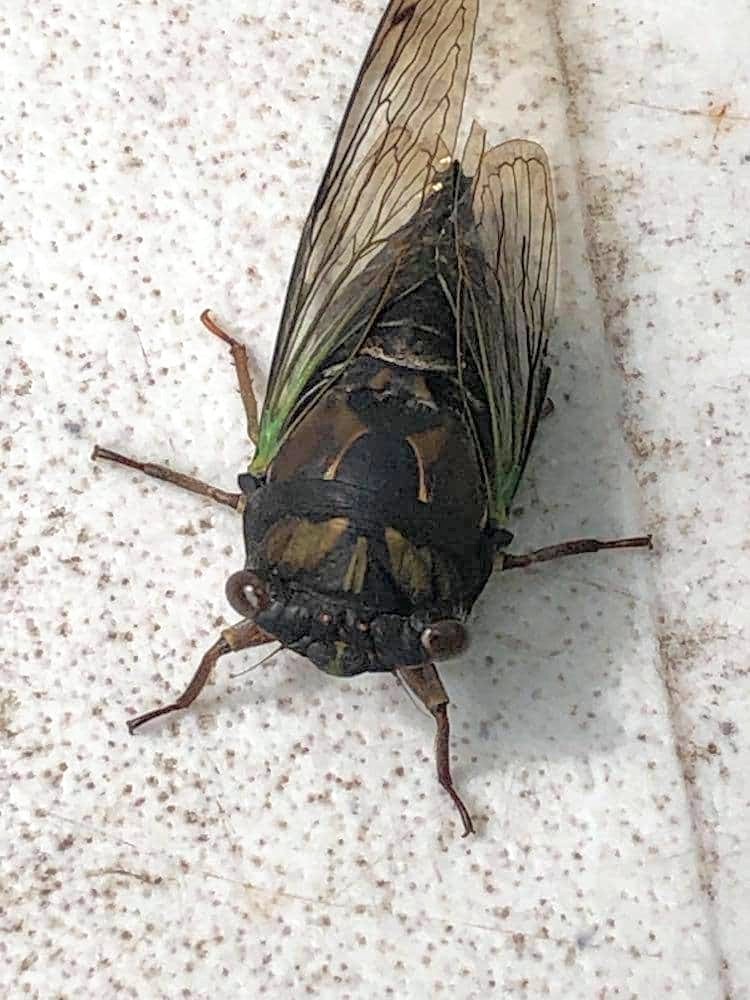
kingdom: Animalia
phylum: Arthropoda
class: Insecta
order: Hemiptera
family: Cicadidae
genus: Neotibicen
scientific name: Neotibicen lyricen
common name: Lyric cicada
